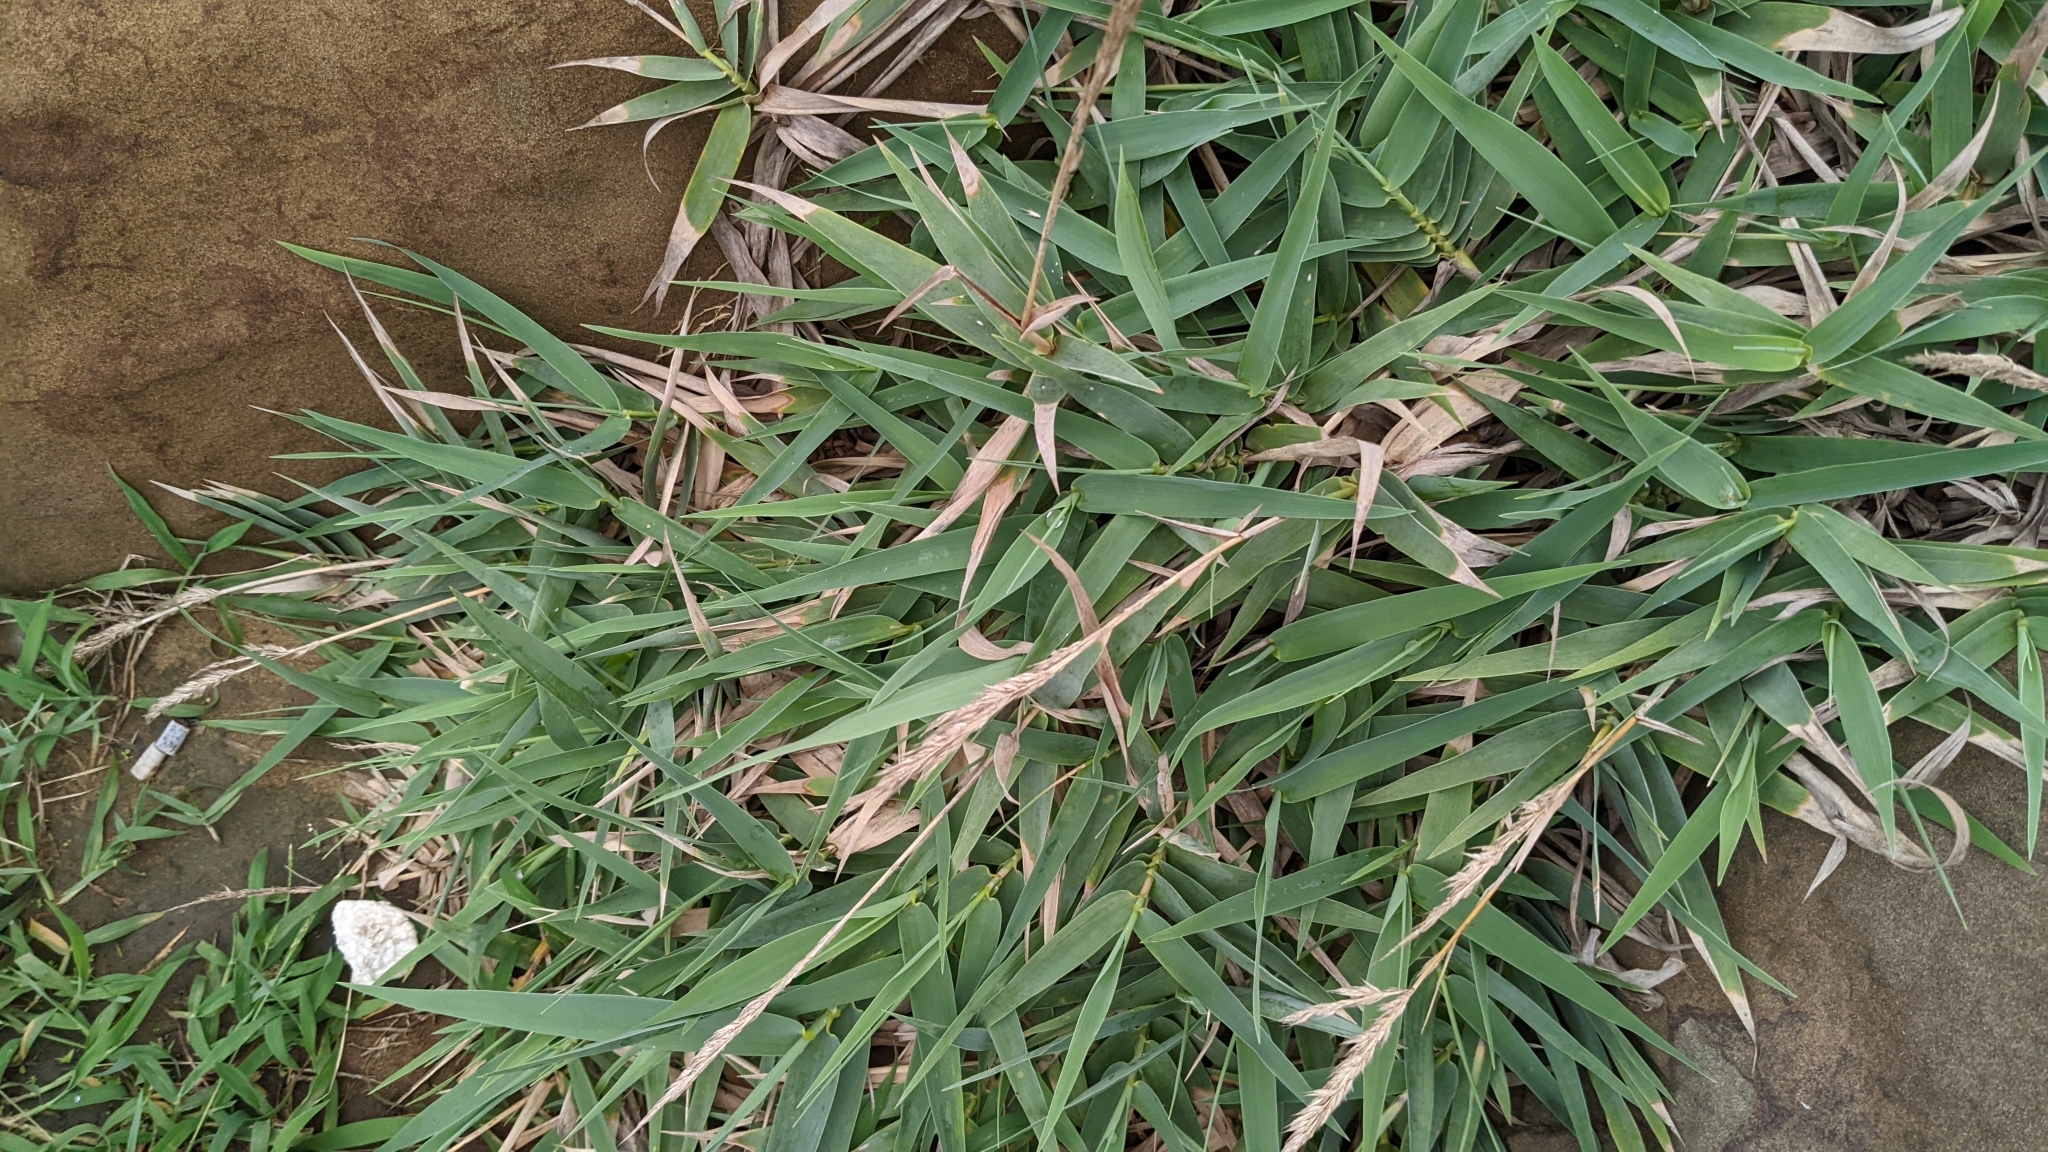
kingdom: Plantae
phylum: Tracheophyta
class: Liliopsida
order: Poales
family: Poaceae
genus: Arundo
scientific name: Arundo formosana
